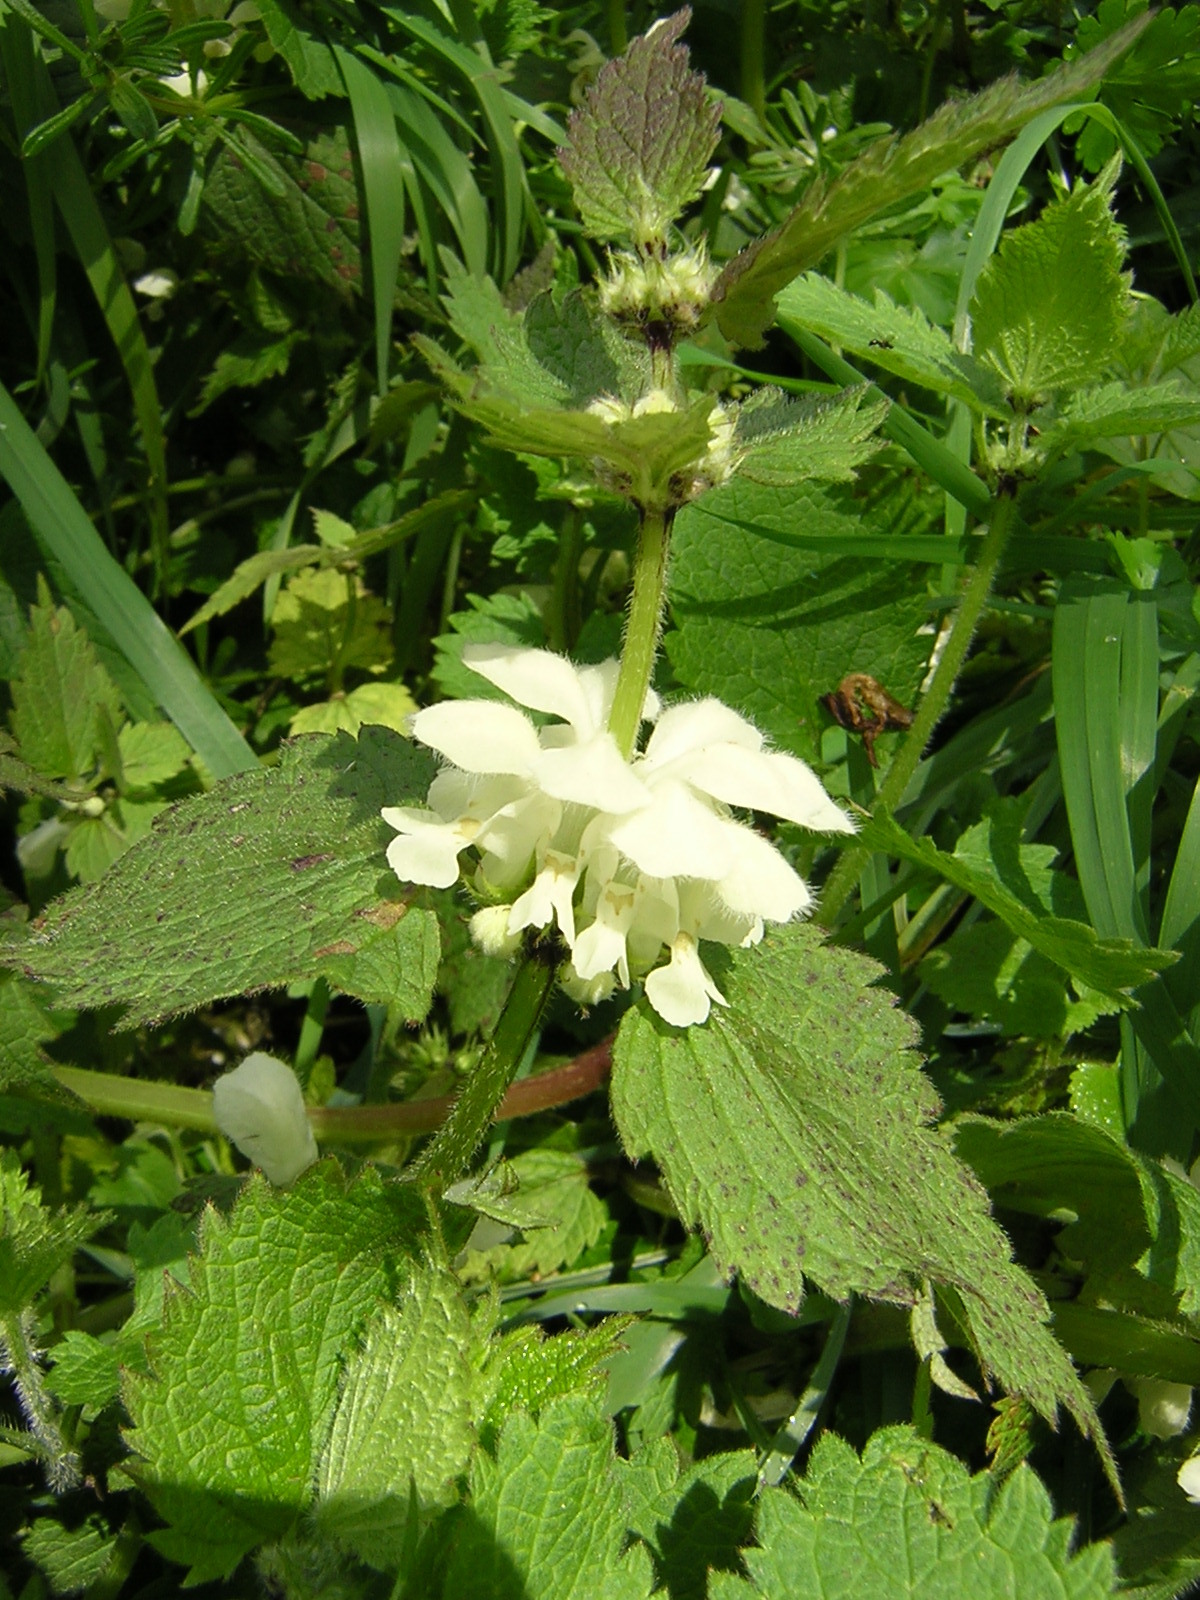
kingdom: Plantae
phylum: Tracheophyta
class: Magnoliopsida
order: Lamiales
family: Lamiaceae
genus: Lamium
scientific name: Lamium album
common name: White dead-nettle
